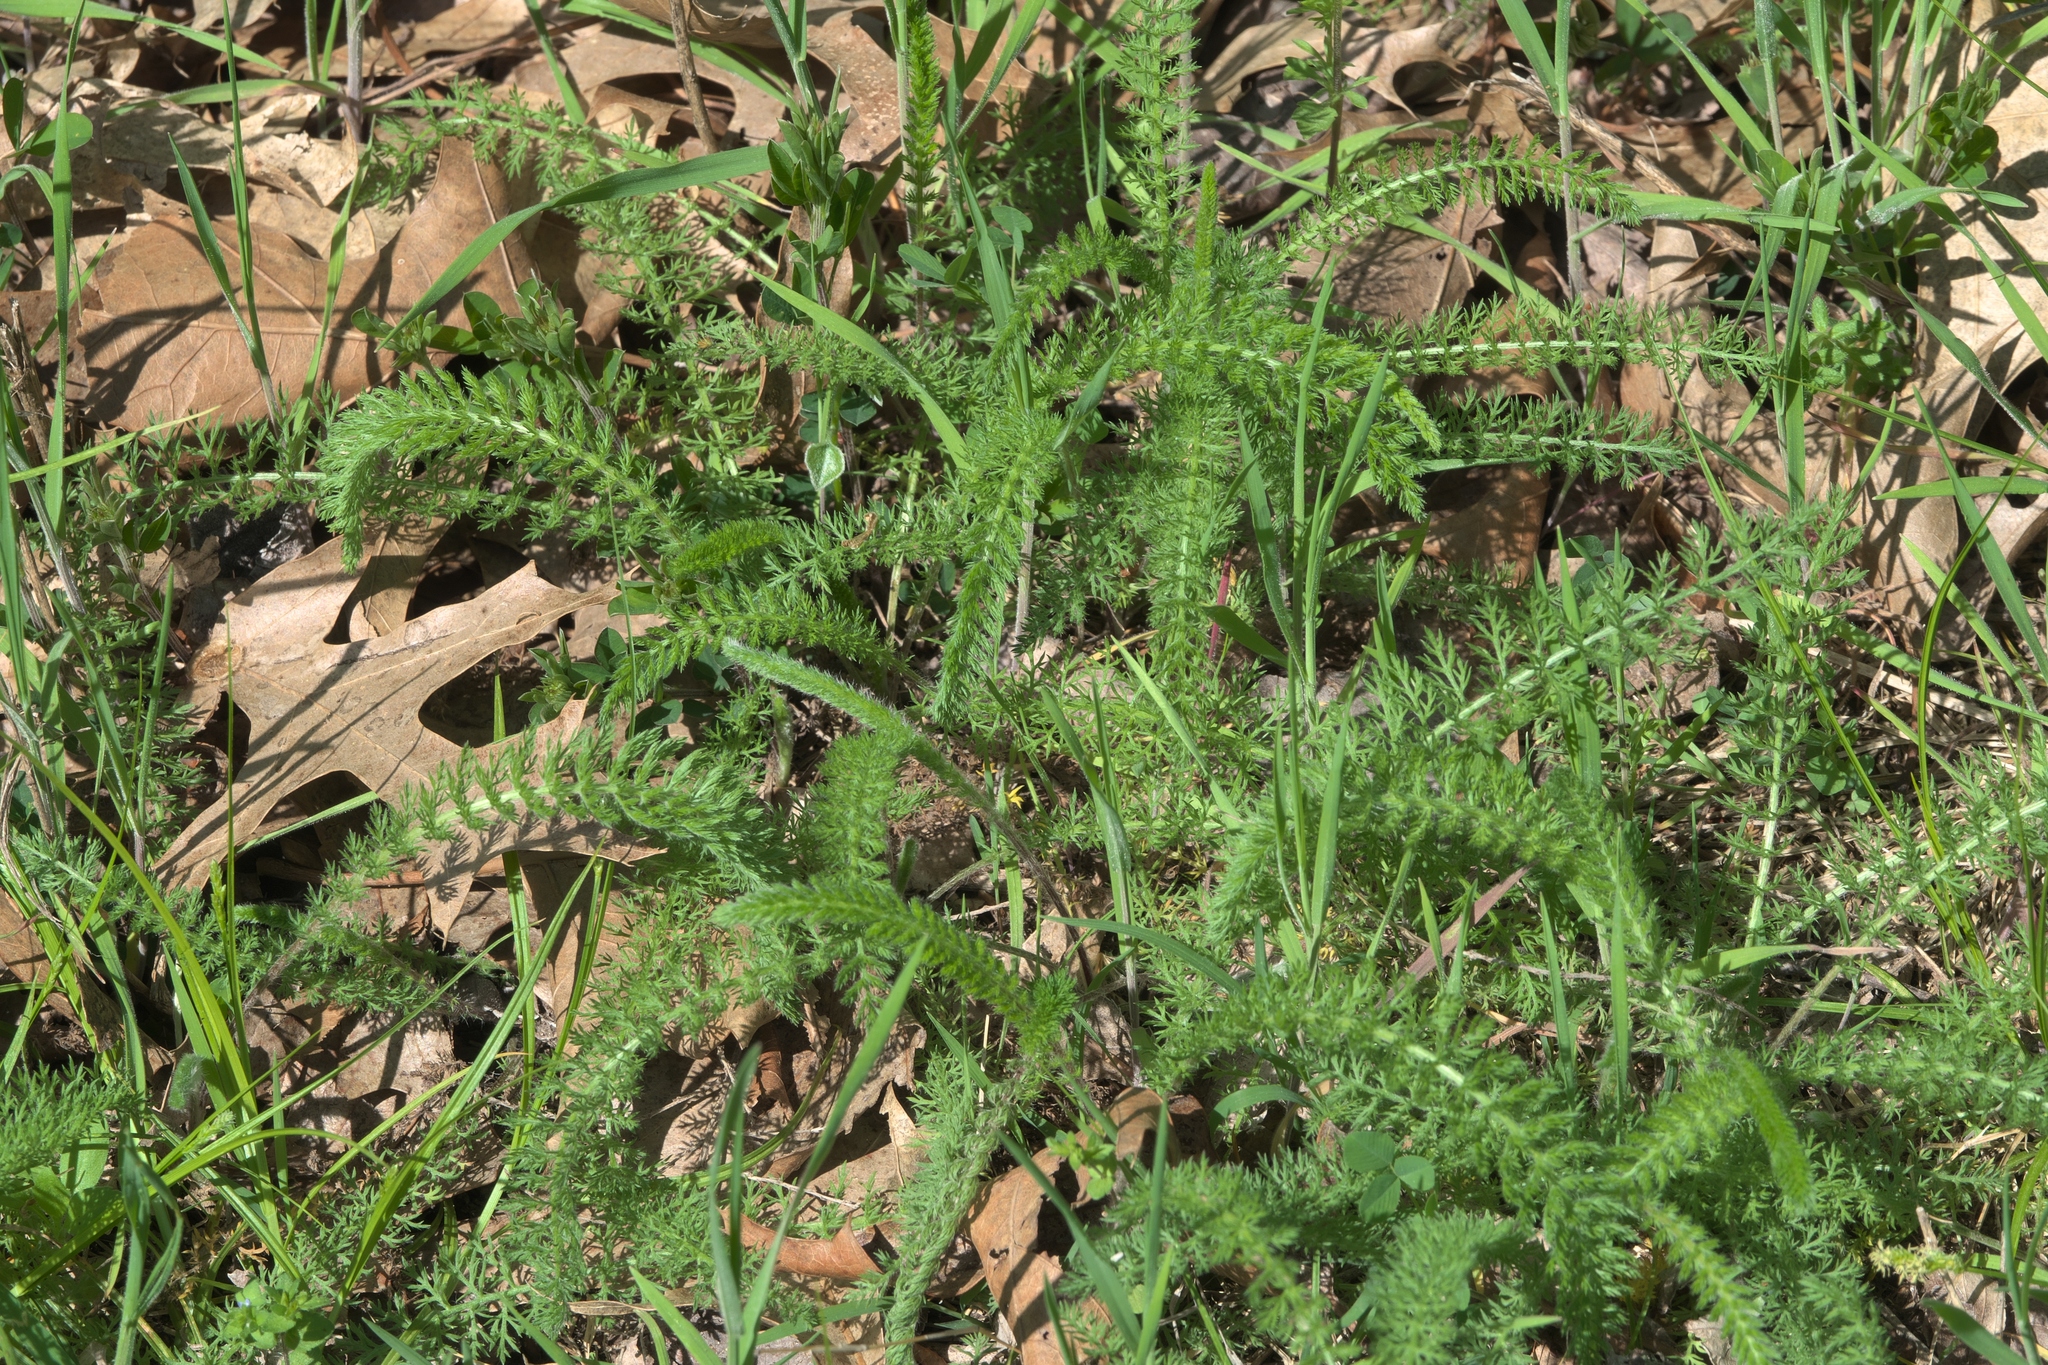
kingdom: Plantae
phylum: Tracheophyta
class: Magnoliopsida
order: Asterales
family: Asteraceae
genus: Achillea
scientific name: Achillea millefolium
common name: Yarrow
